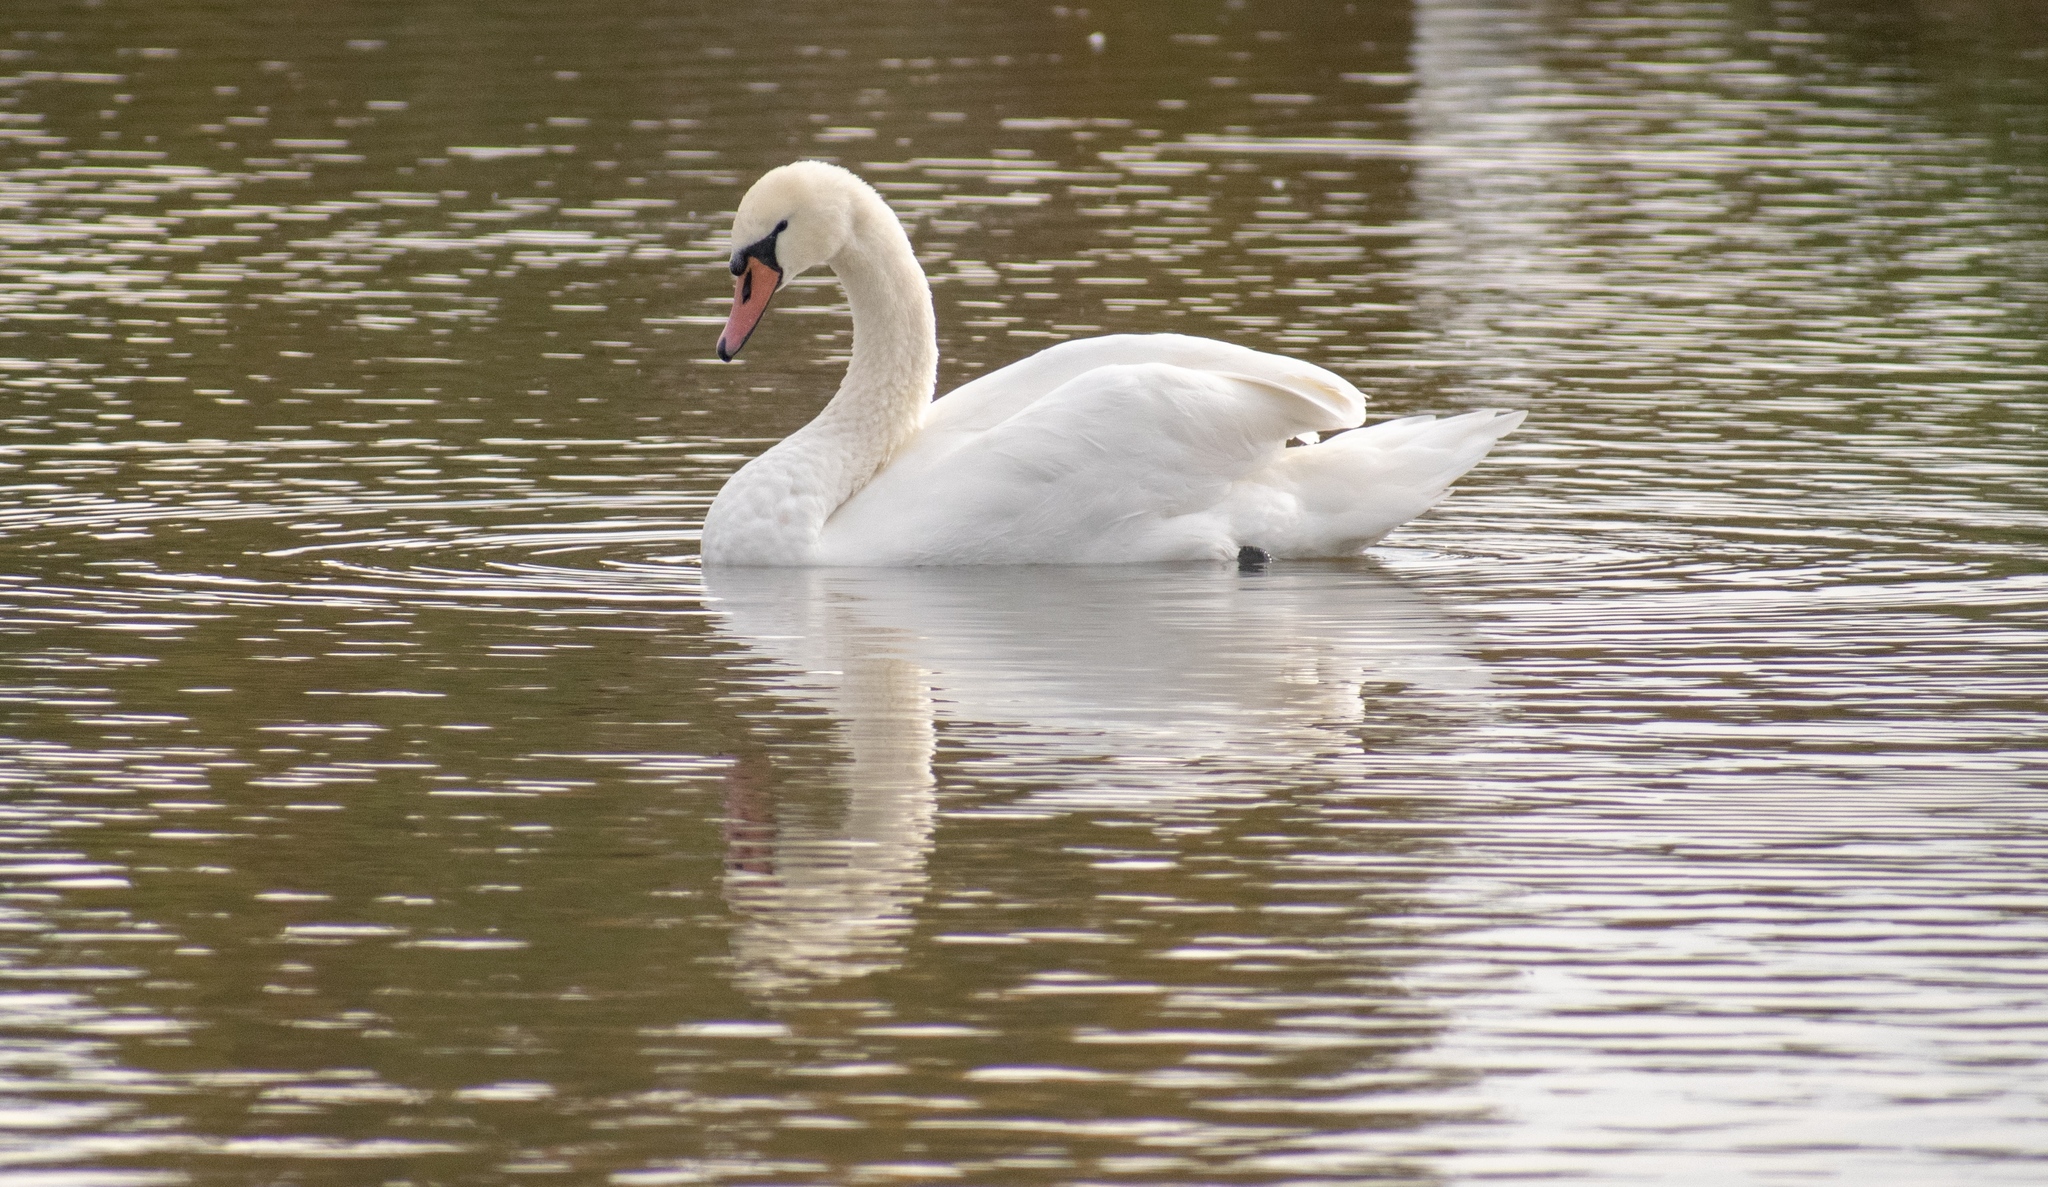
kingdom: Animalia
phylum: Chordata
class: Aves
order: Anseriformes
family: Anatidae
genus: Cygnus
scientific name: Cygnus olor
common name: Mute swan
